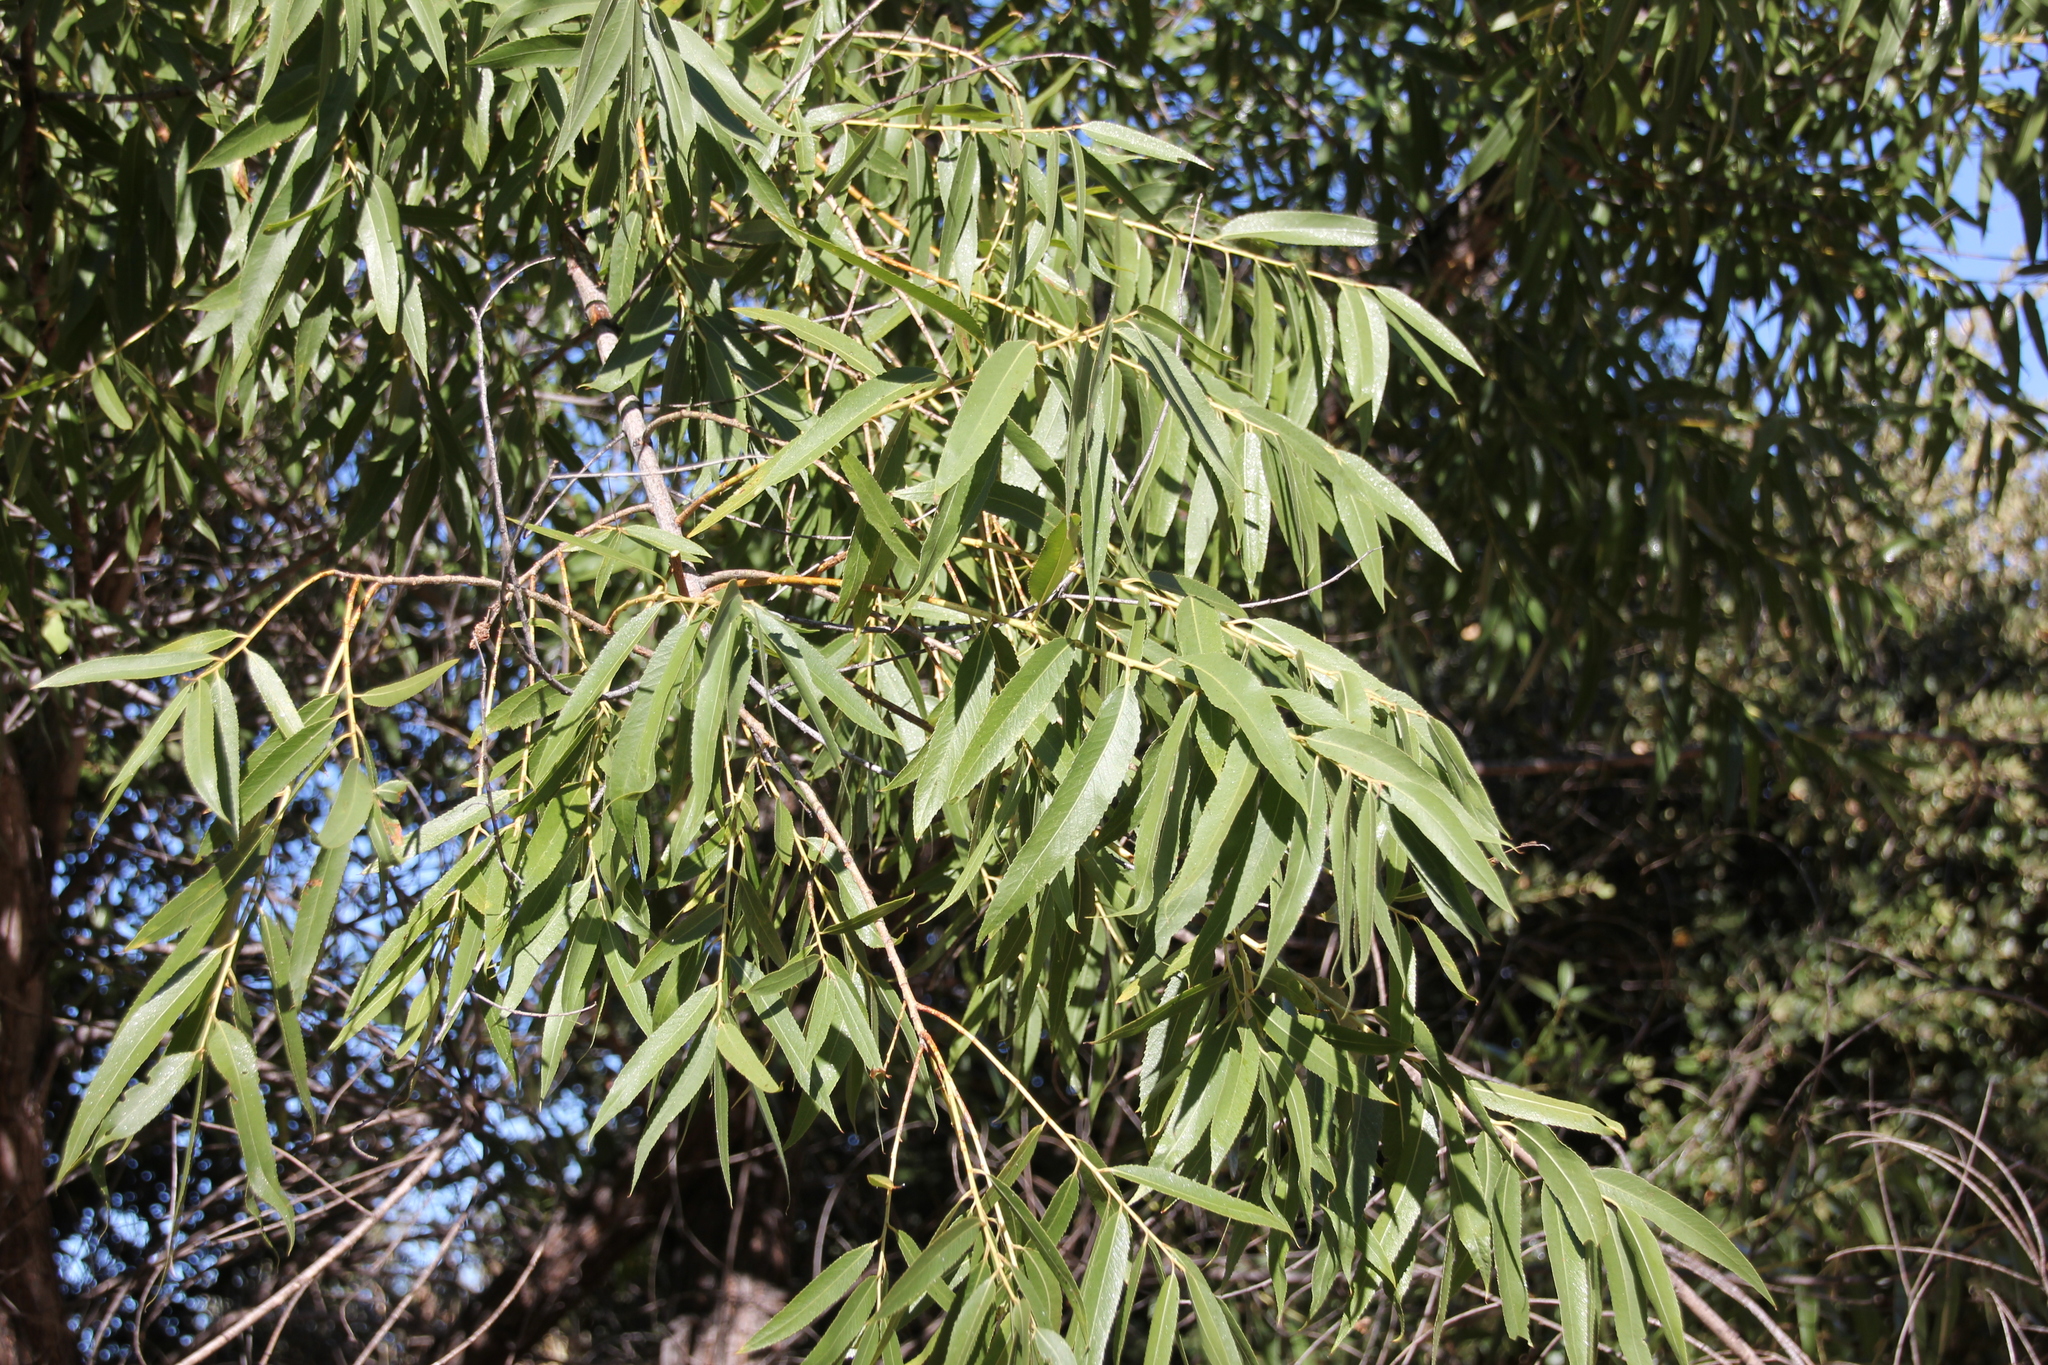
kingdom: Plantae
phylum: Tracheophyta
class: Magnoliopsida
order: Malpighiales
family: Salicaceae
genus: Salix
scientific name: Salix gooddingii
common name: Goodding's willow
